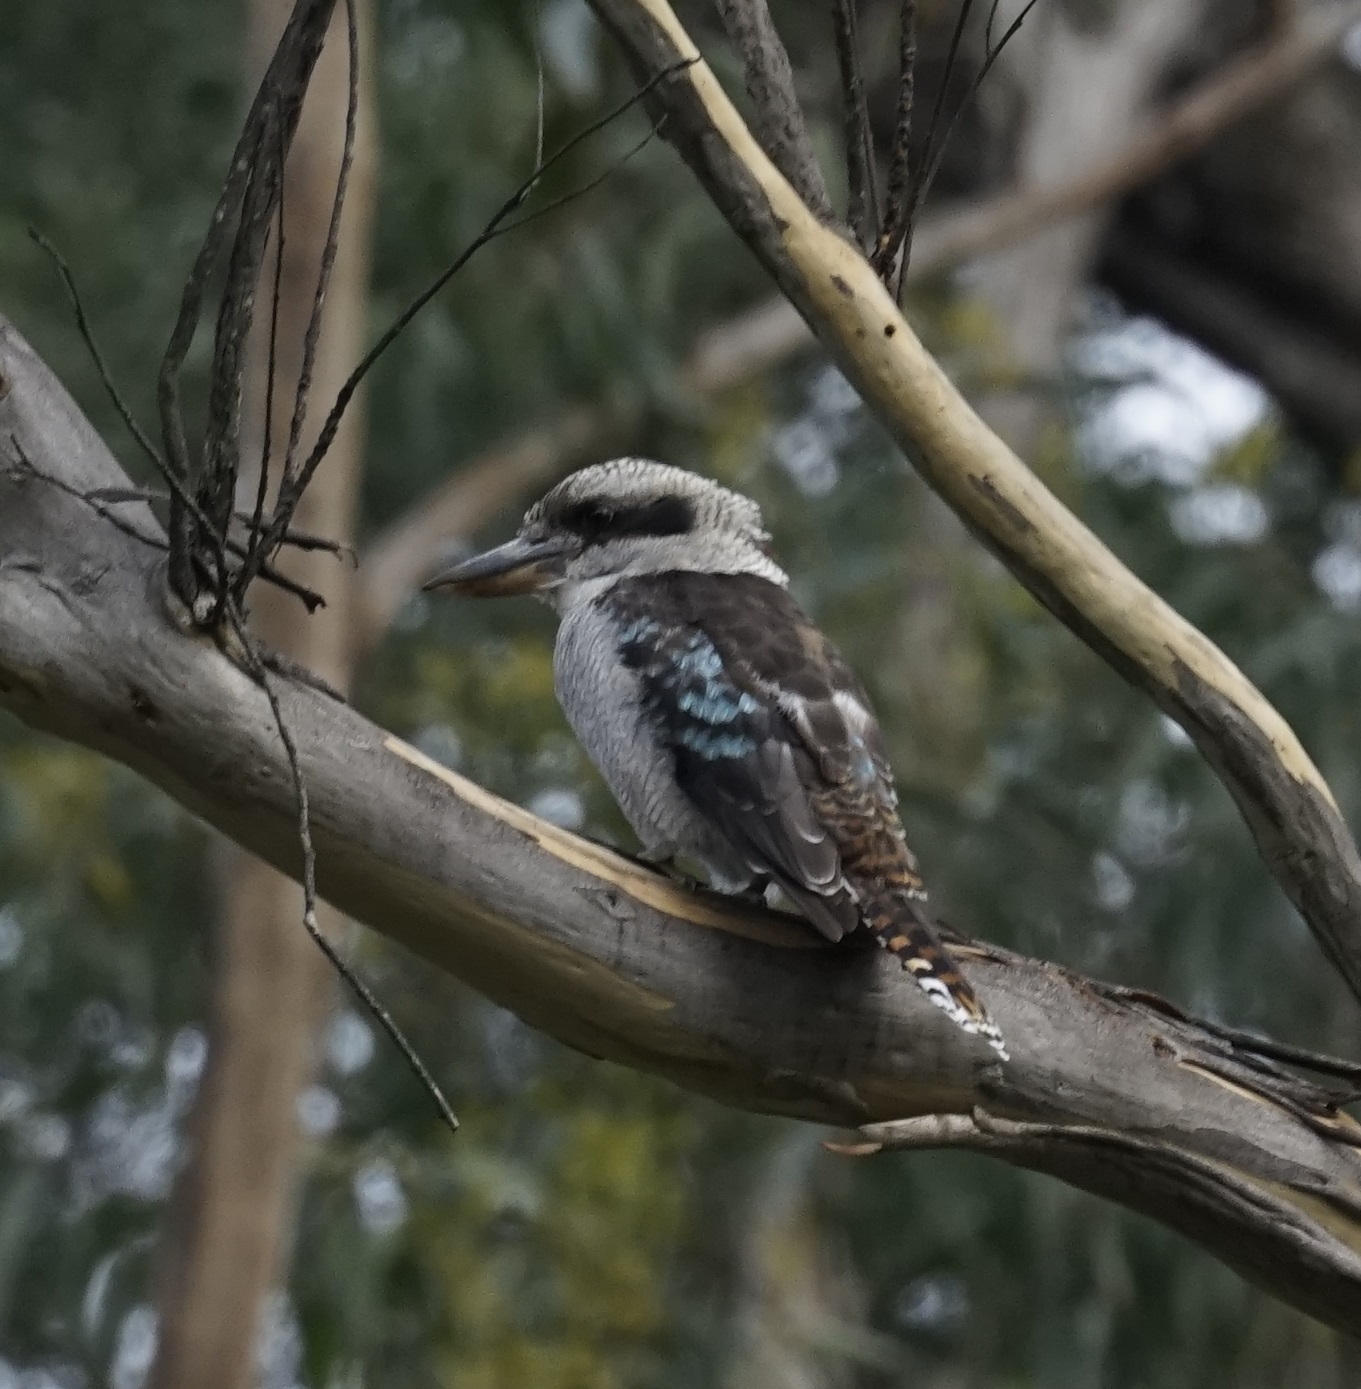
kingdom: Animalia
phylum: Chordata
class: Aves
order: Coraciiformes
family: Alcedinidae
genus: Dacelo
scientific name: Dacelo novaeguineae
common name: Laughing kookaburra
